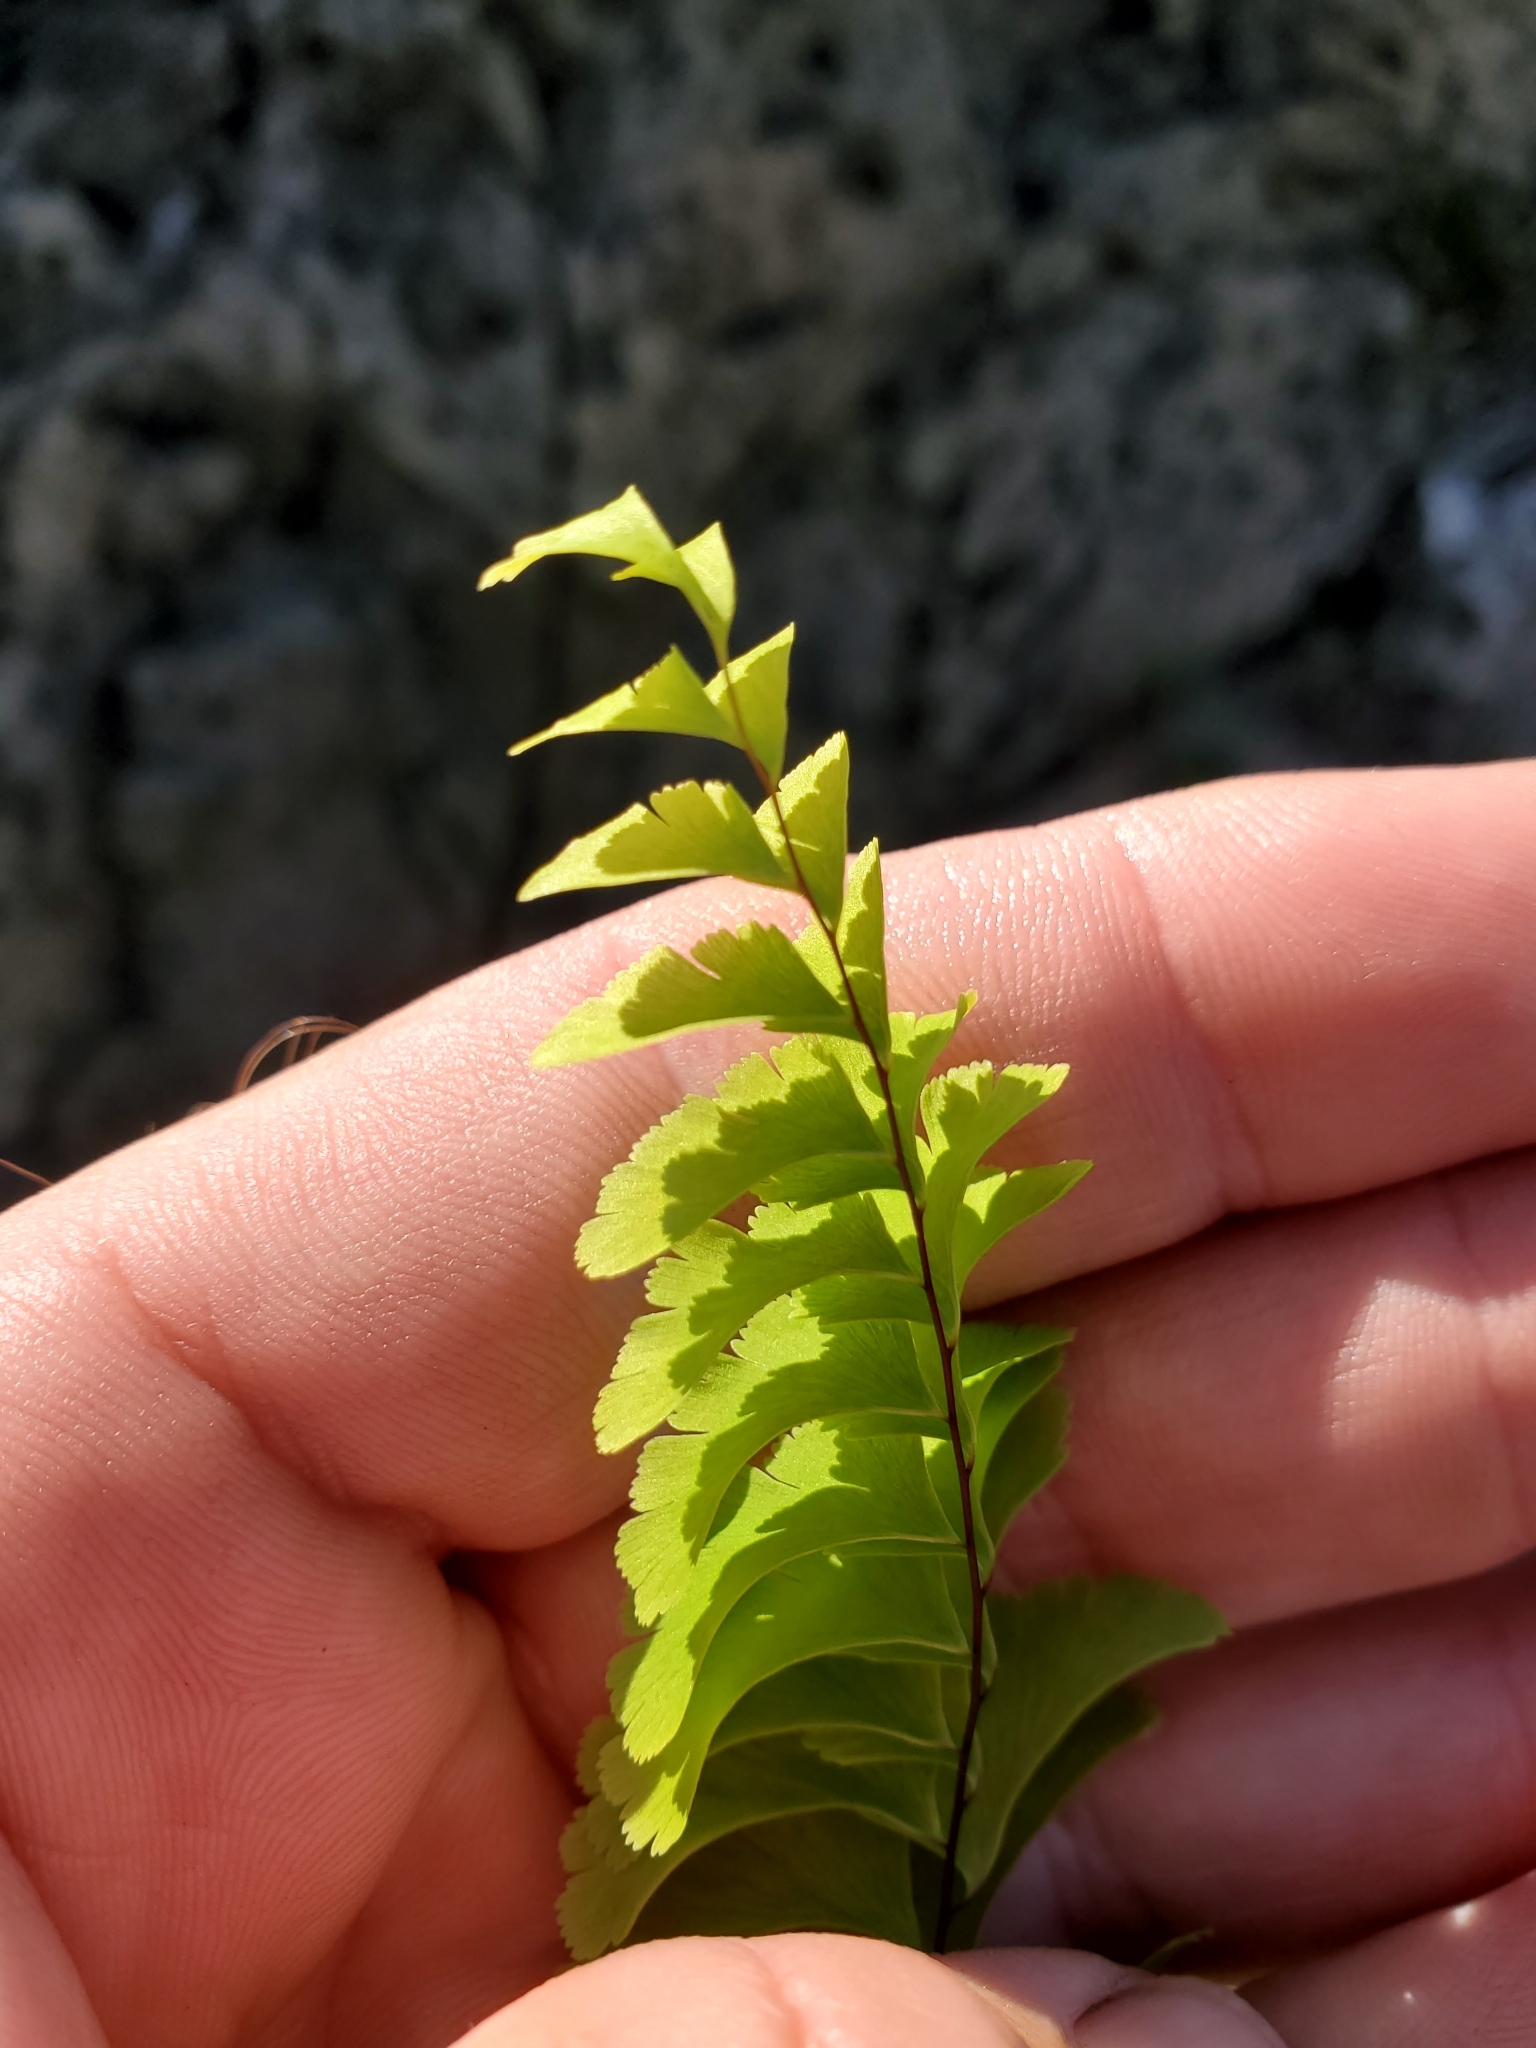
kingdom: Plantae
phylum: Tracheophyta
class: Polypodiopsida
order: Polypodiales
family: Pteridaceae
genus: Adiantum
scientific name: Adiantum aleuticum
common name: Aleutian maidenhair fern
